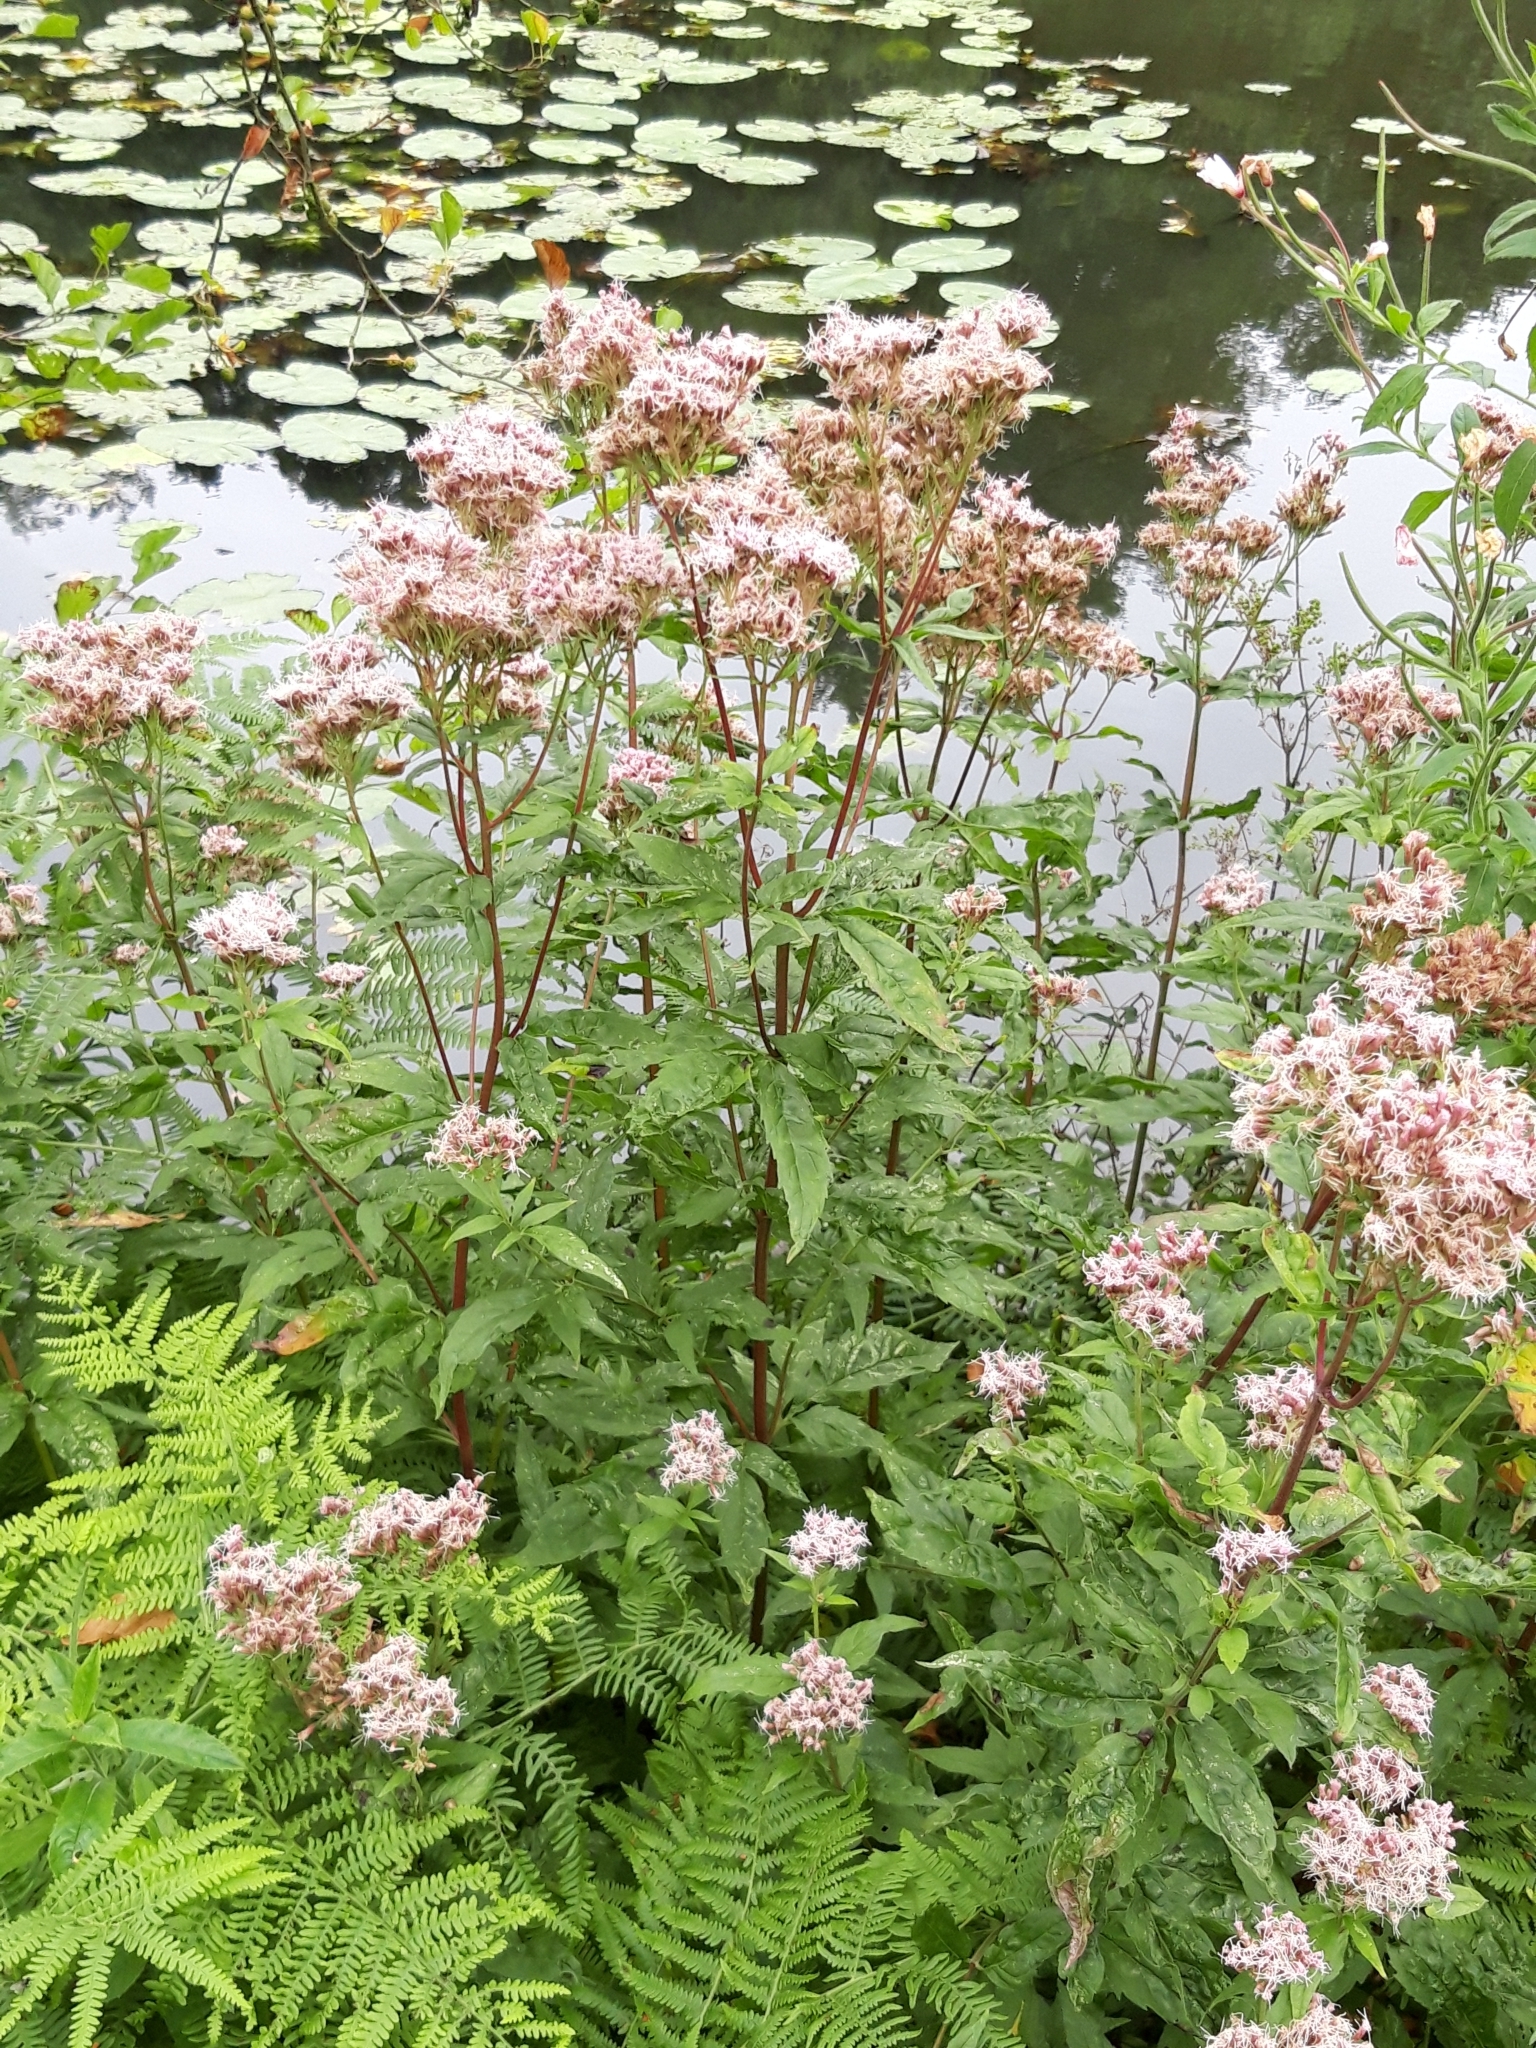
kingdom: Plantae
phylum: Tracheophyta
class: Magnoliopsida
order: Asterales
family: Asteraceae
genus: Eupatorium
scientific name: Eupatorium cannabinum
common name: Hemp-agrimony
